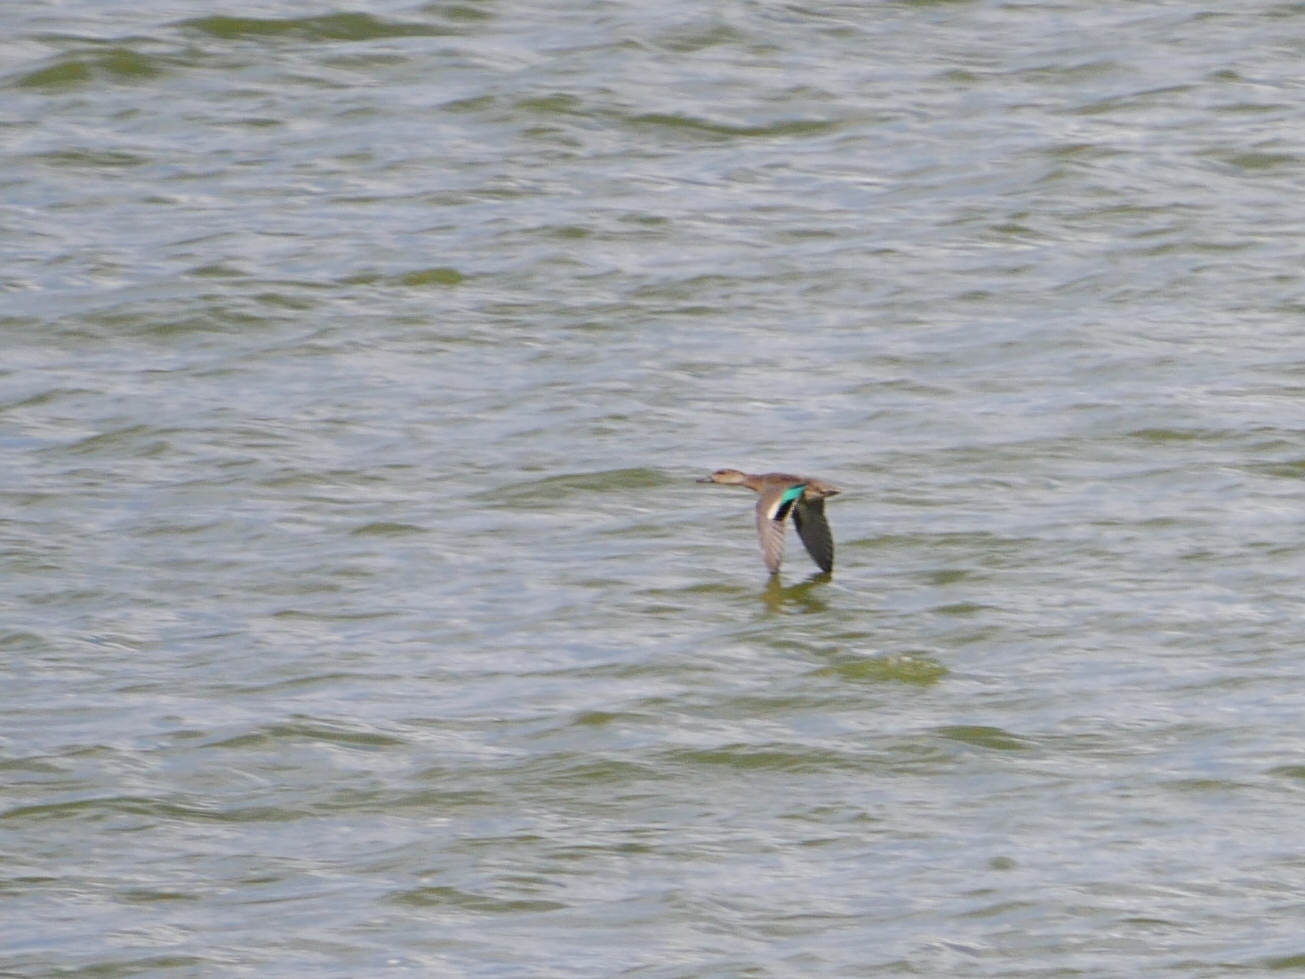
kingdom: Animalia
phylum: Chordata
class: Aves
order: Anseriformes
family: Anatidae
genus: Anas
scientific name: Anas crecca
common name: Eurasian teal
